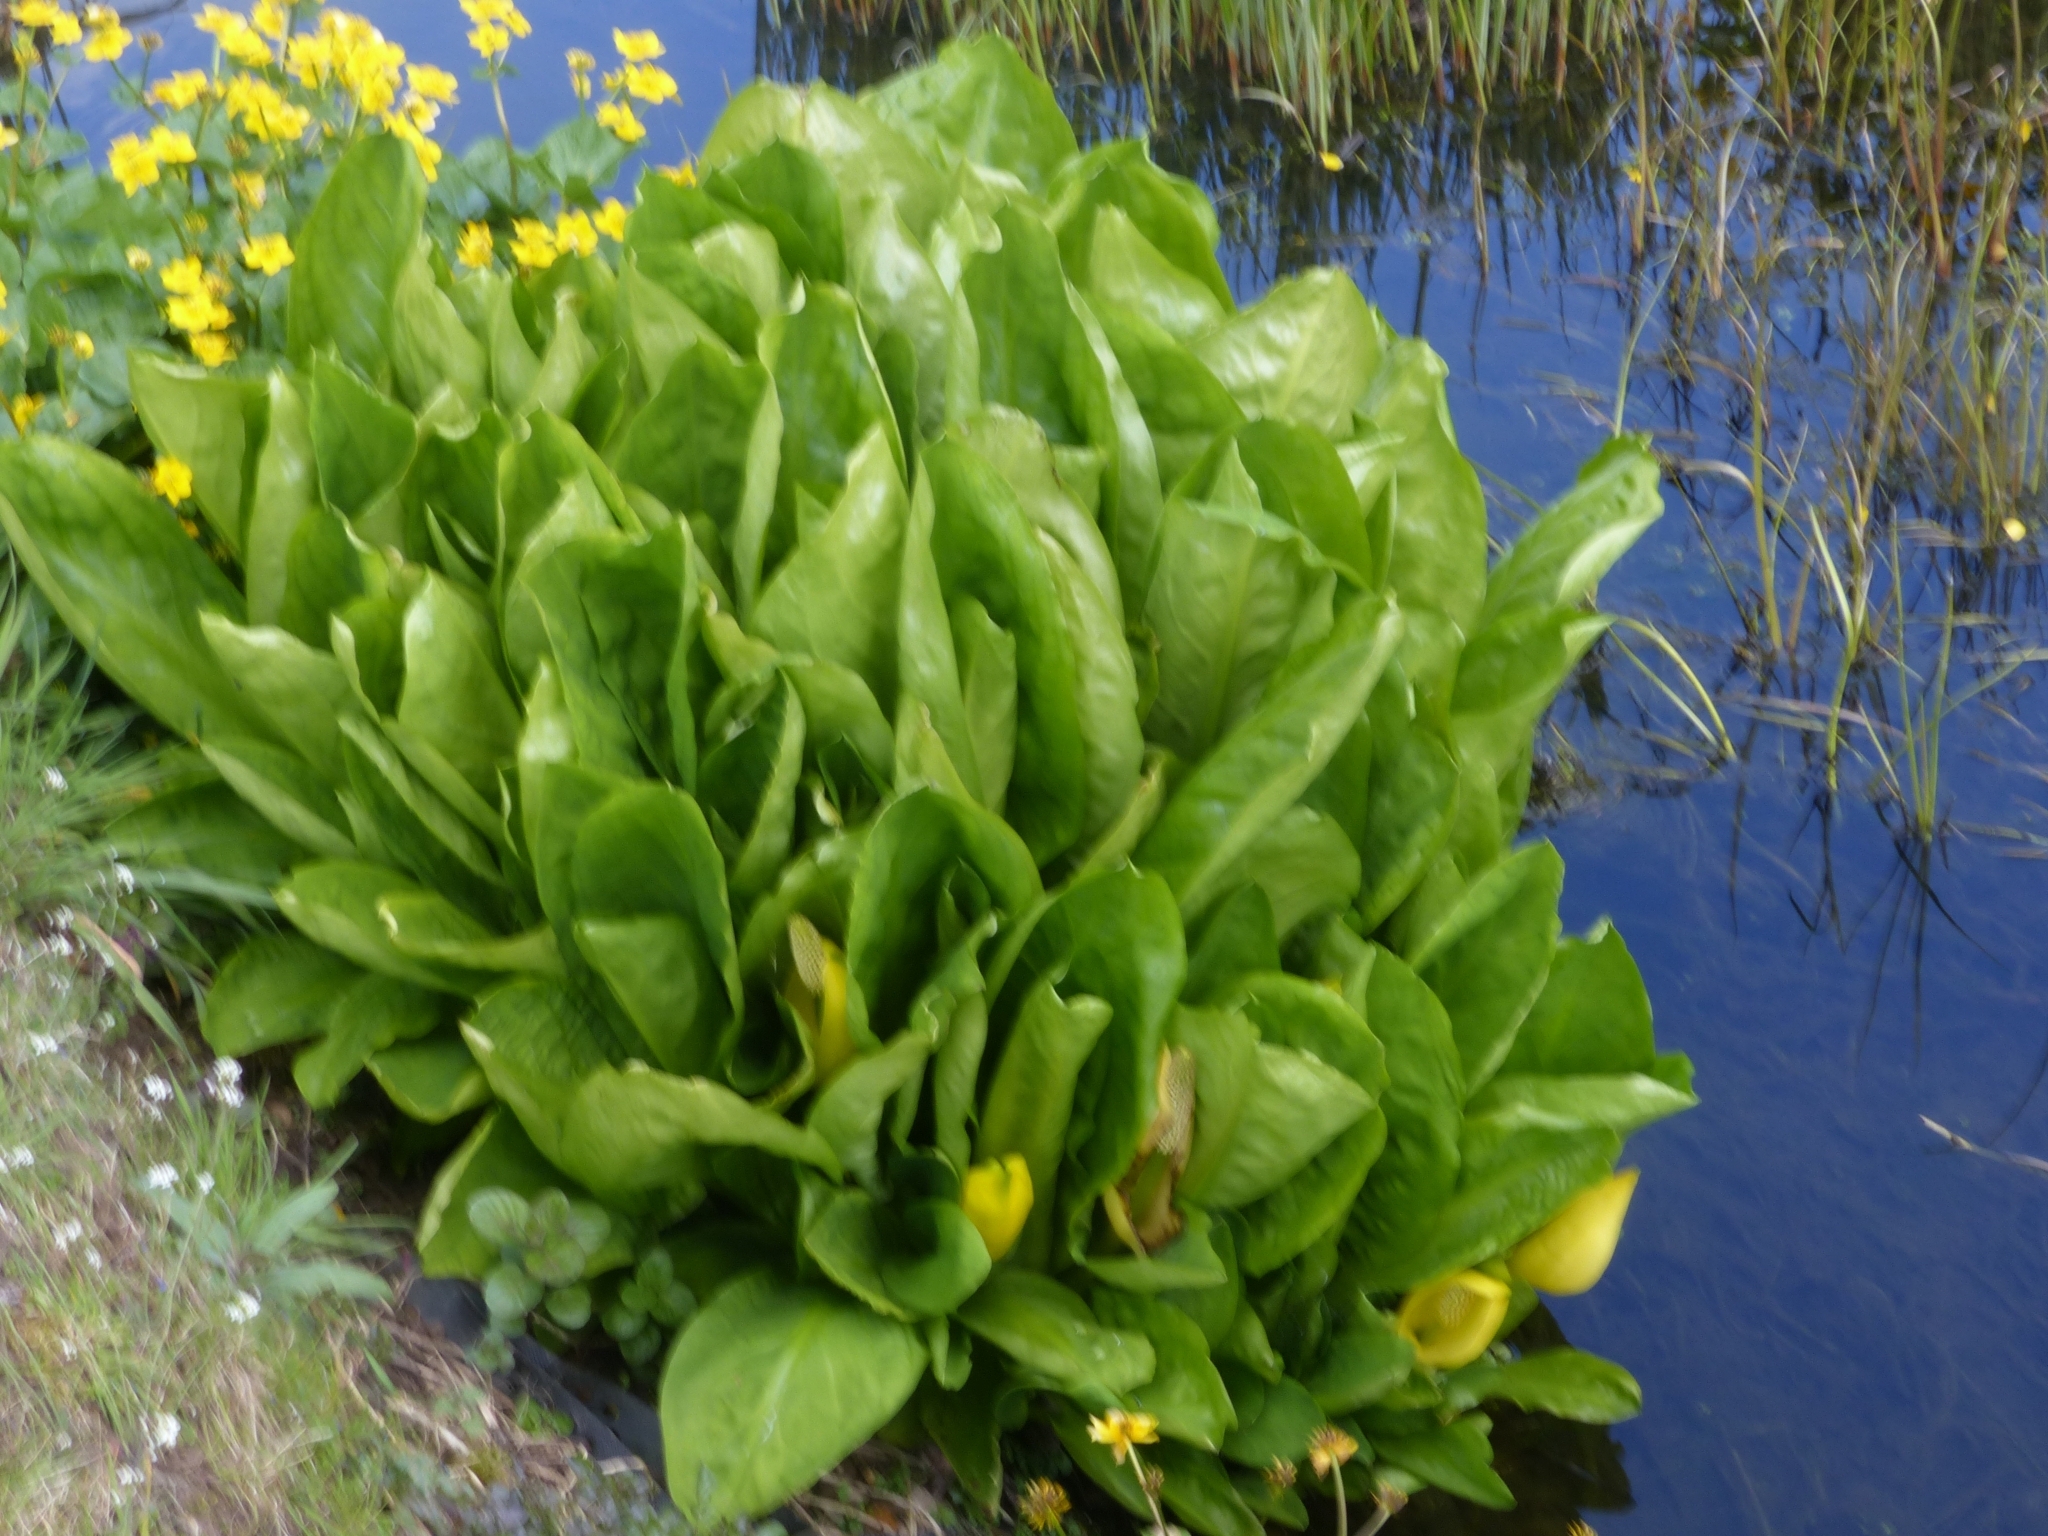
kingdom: Plantae
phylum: Tracheophyta
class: Liliopsida
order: Alismatales
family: Araceae
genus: Lysichiton
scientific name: Lysichiton americanus
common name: American skunk cabbage
